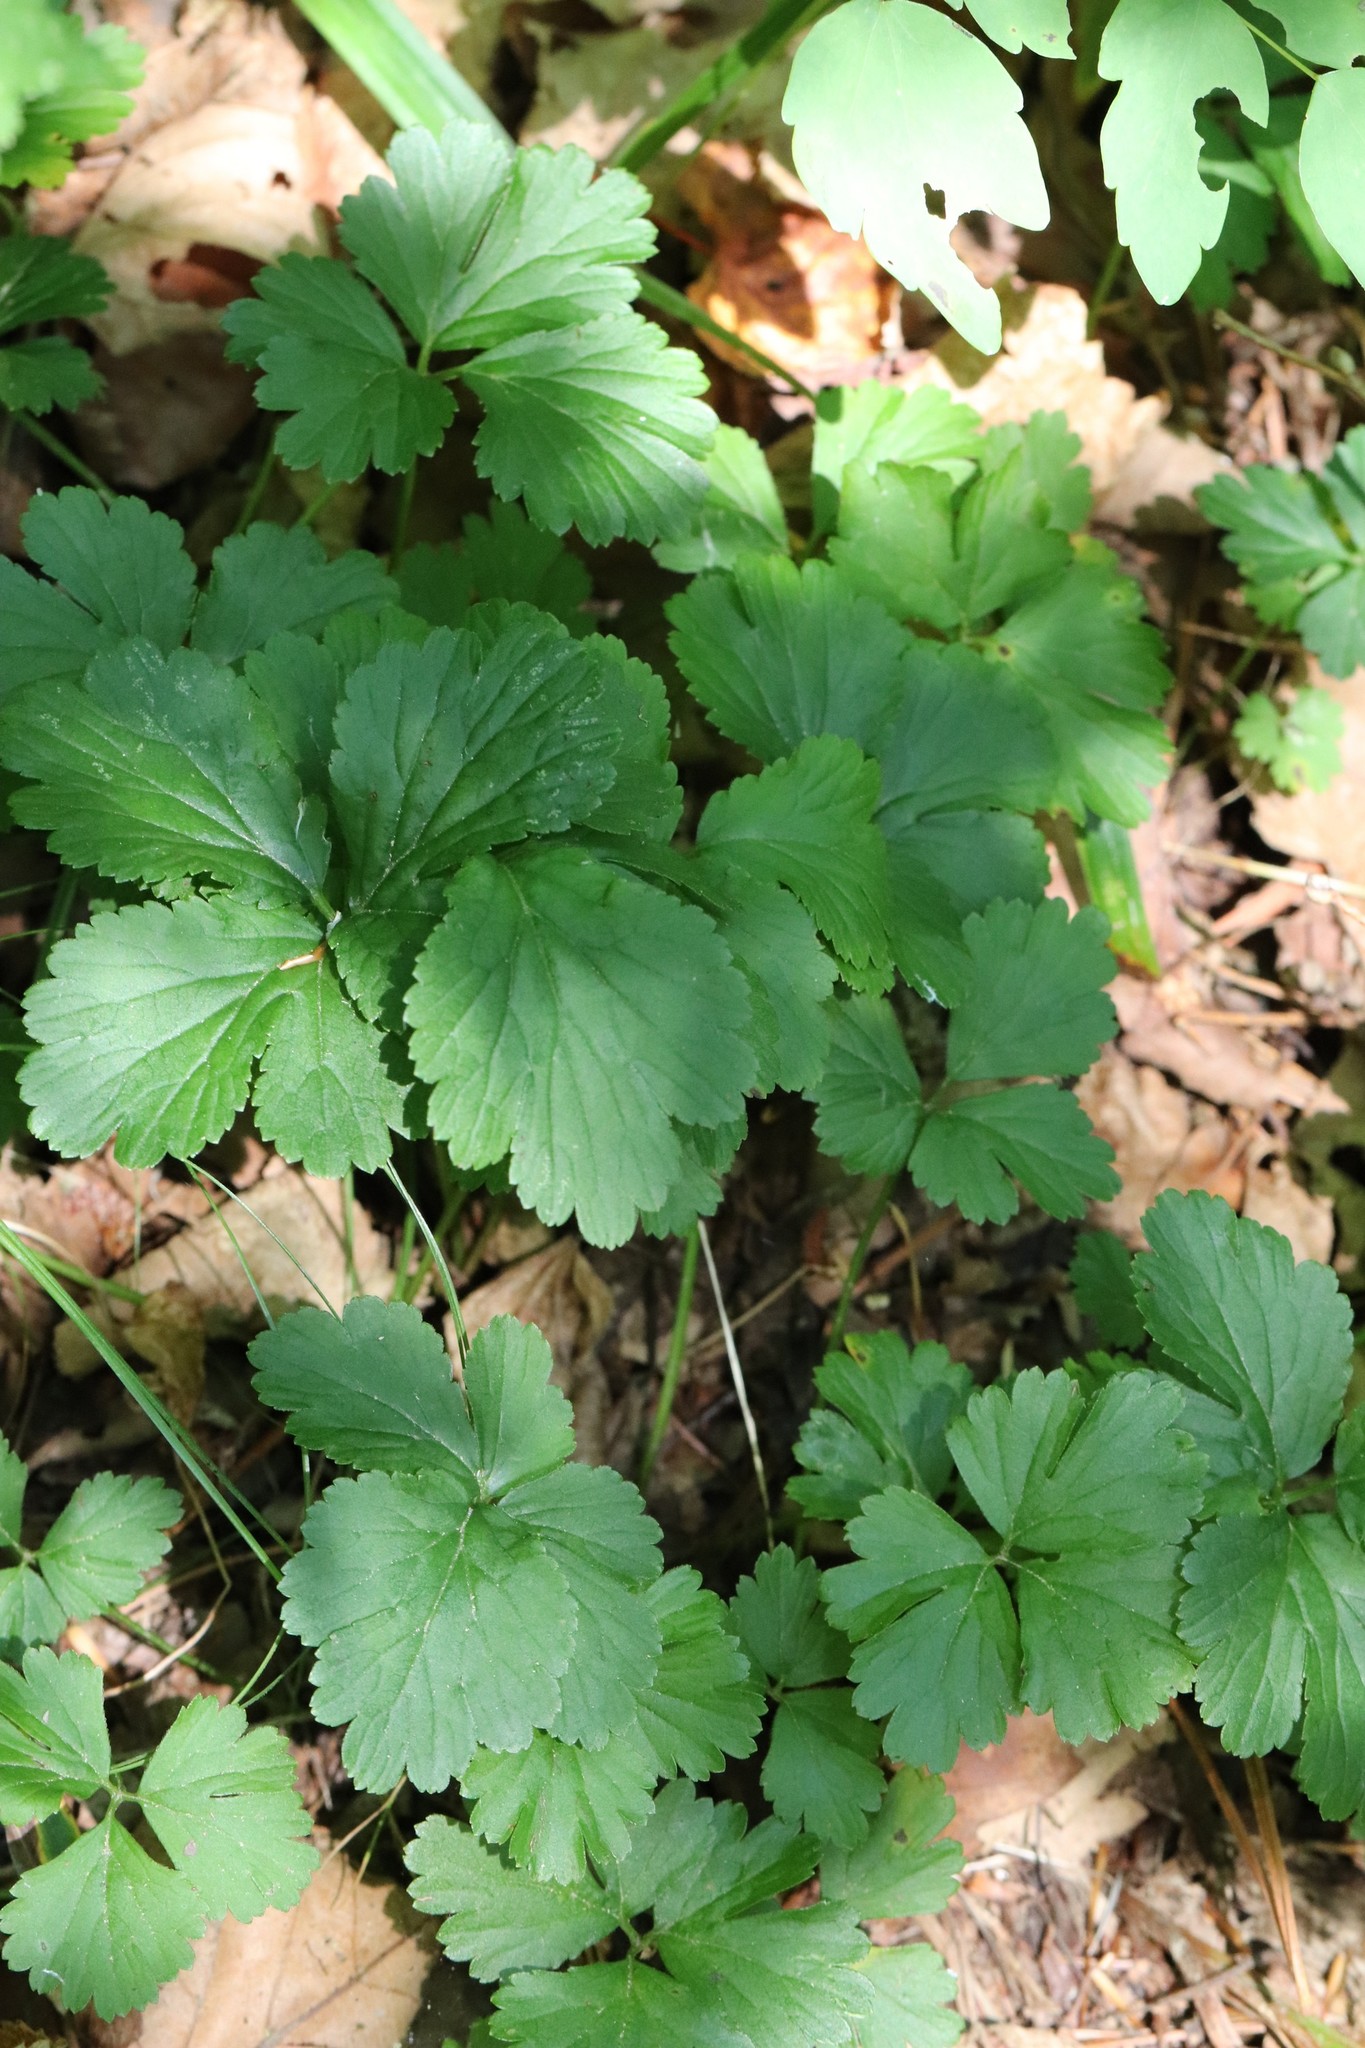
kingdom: Plantae
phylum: Tracheophyta
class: Magnoliopsida
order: Rosales
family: Rosaceae
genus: Geum
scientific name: Geum ternatum
